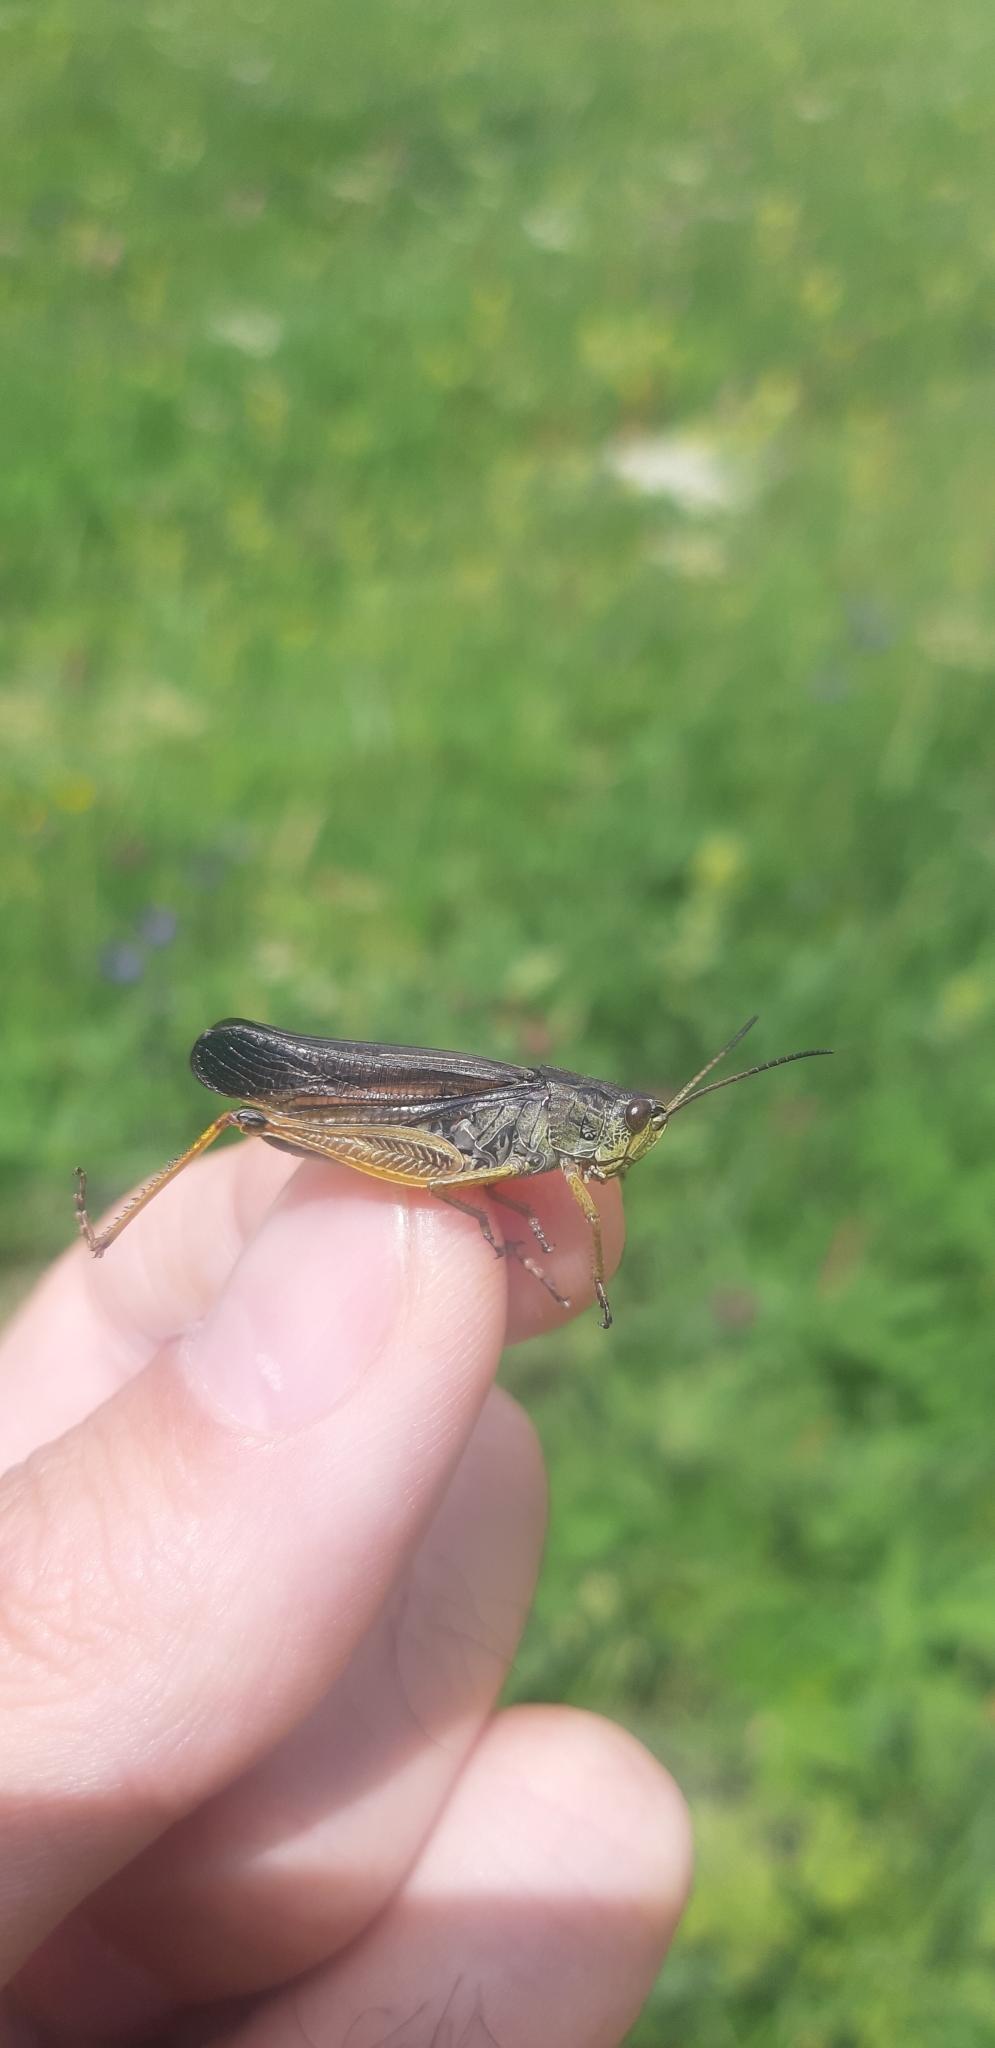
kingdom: Animalia
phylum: Arthropoda
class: Insecta
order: Orthoptera
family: Acrididae
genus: Stauroderus
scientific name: Stauroderus scalaris
